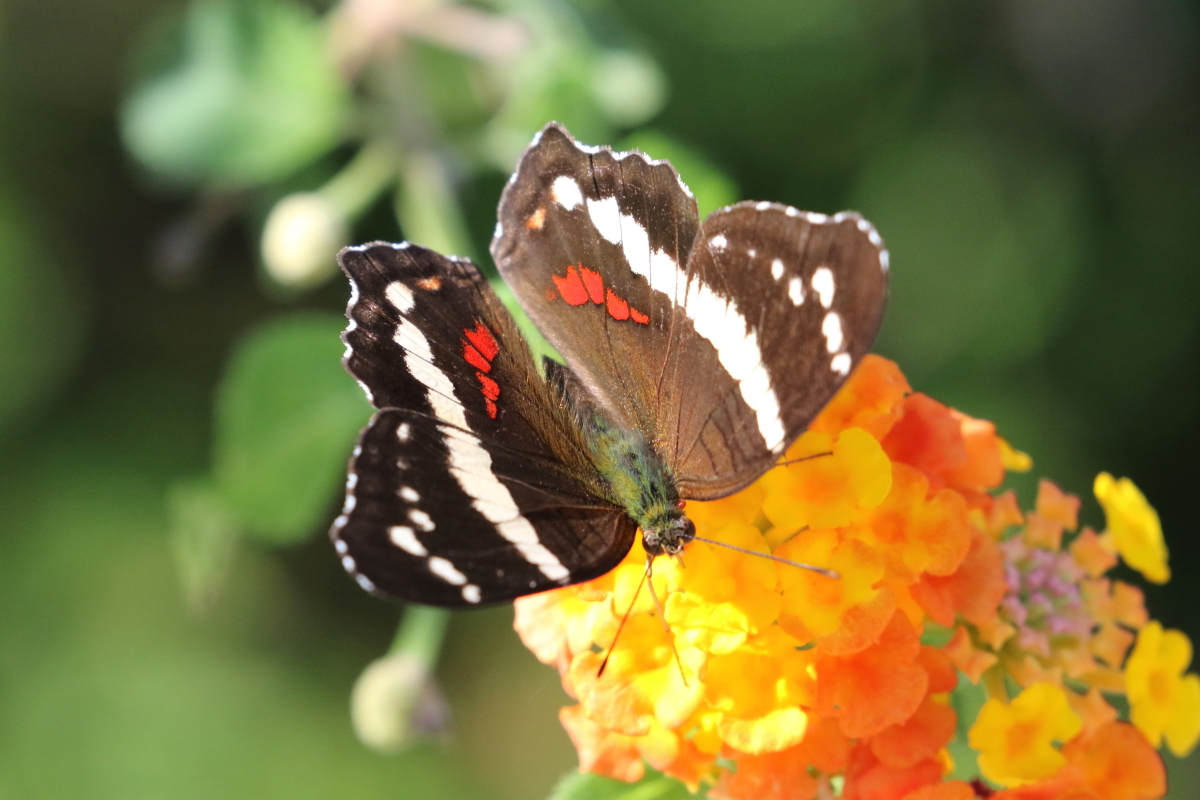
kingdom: Animalia
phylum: Arthropoda
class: Insecta
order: Lepidoptera
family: Nymphalidae
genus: Anartia
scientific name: Anartia fatima
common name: Banded peacock
